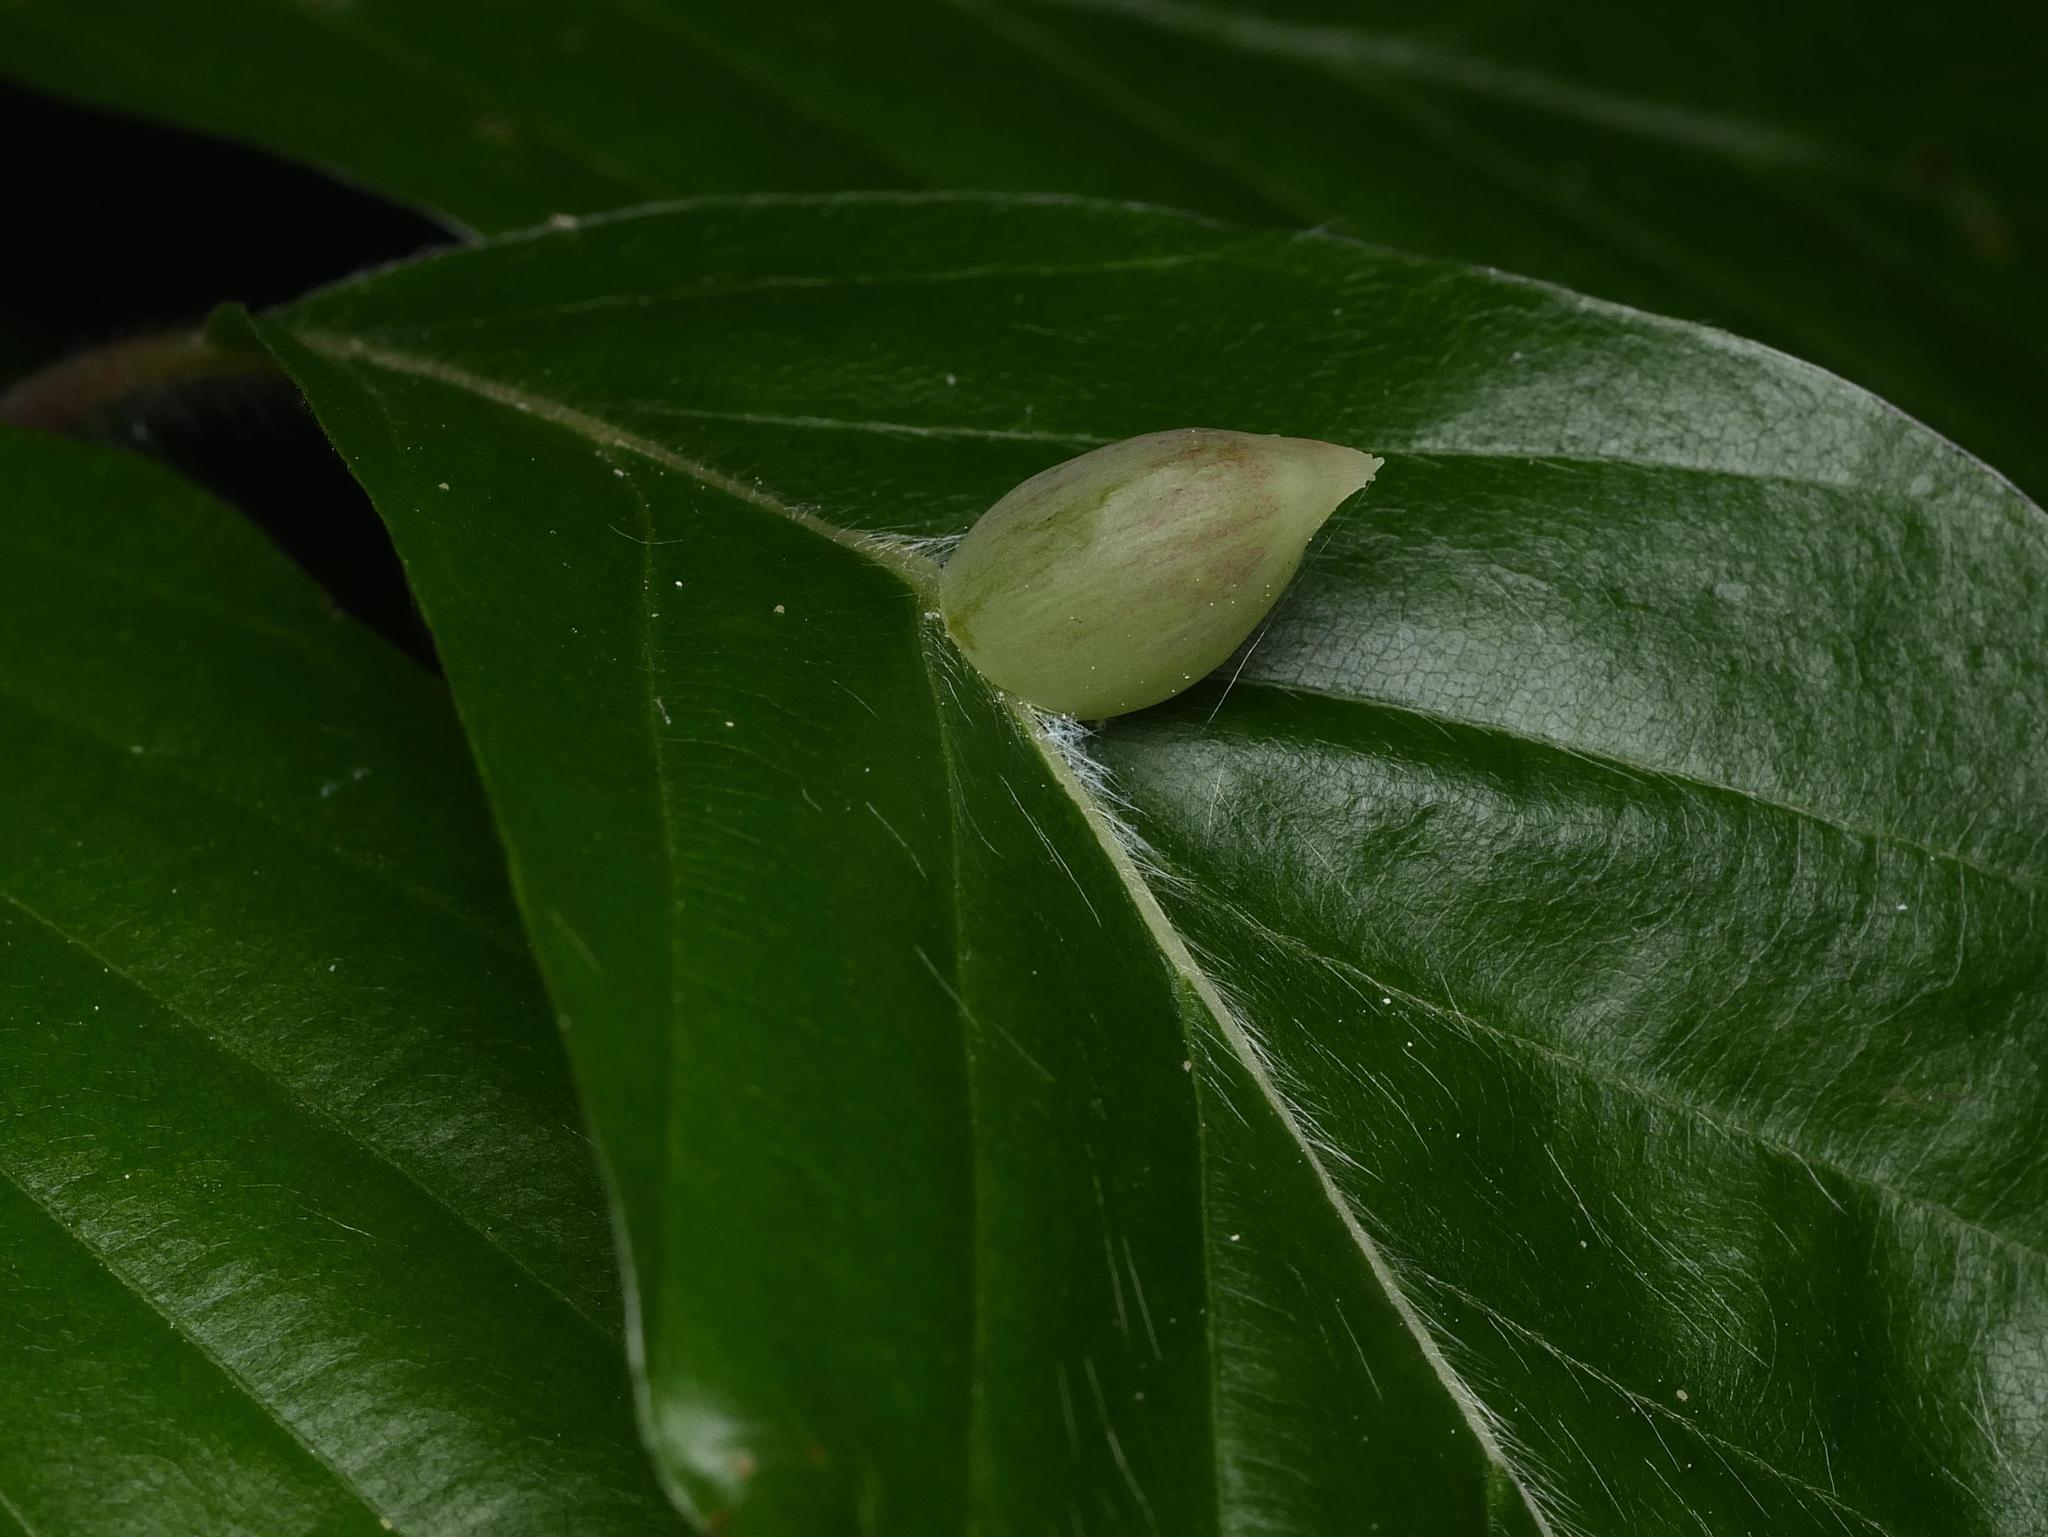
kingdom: Animalia
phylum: Arthropoda
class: Insecta
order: Diptera
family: Cecidomyiidae
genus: Mikiola
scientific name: Mikiola fagi
